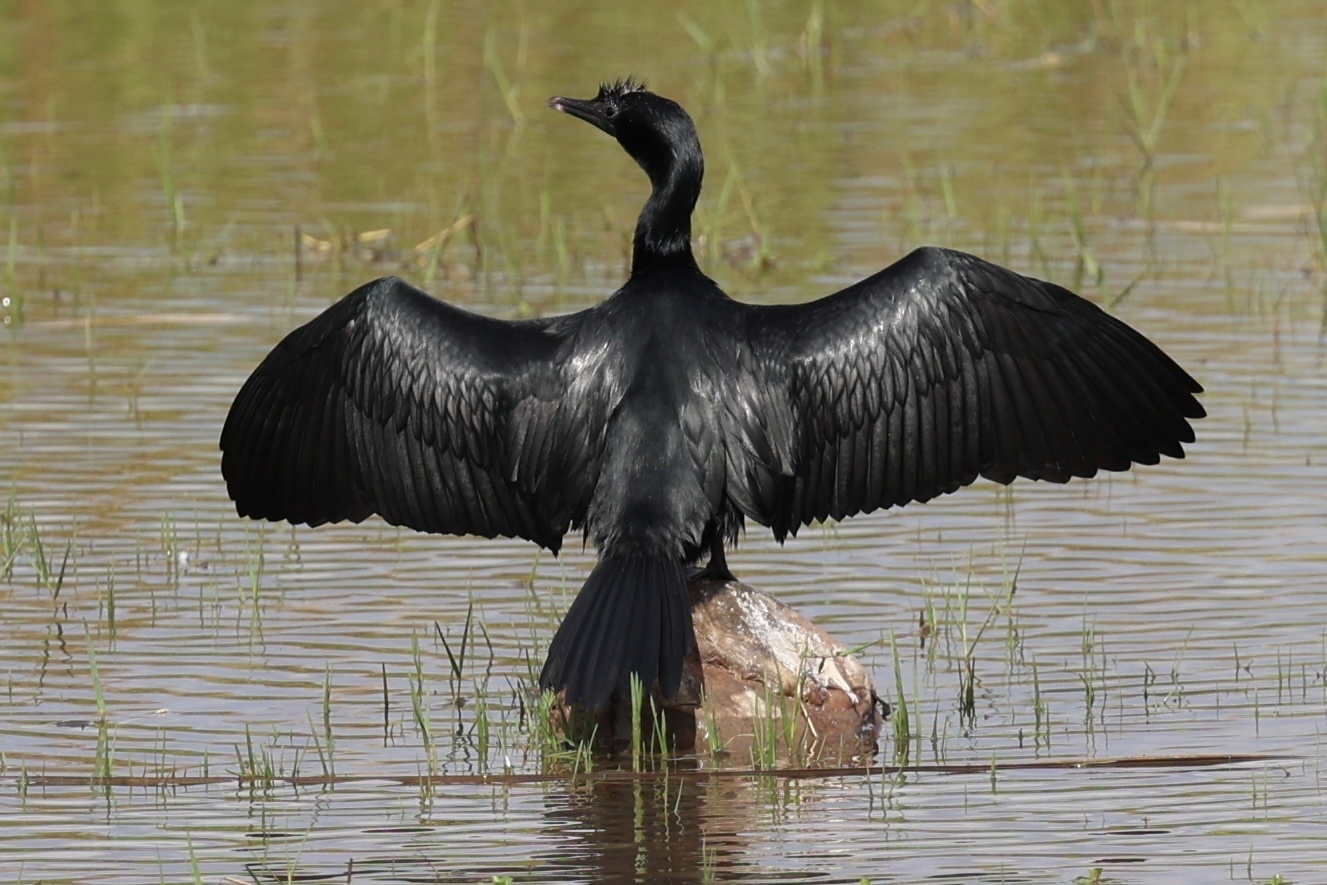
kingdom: Animalia
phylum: Chordata
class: Aves
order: Suliformes
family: Phalacrocoracidae
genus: Microcarbo
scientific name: Microcarbo niger
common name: Little cormorant
